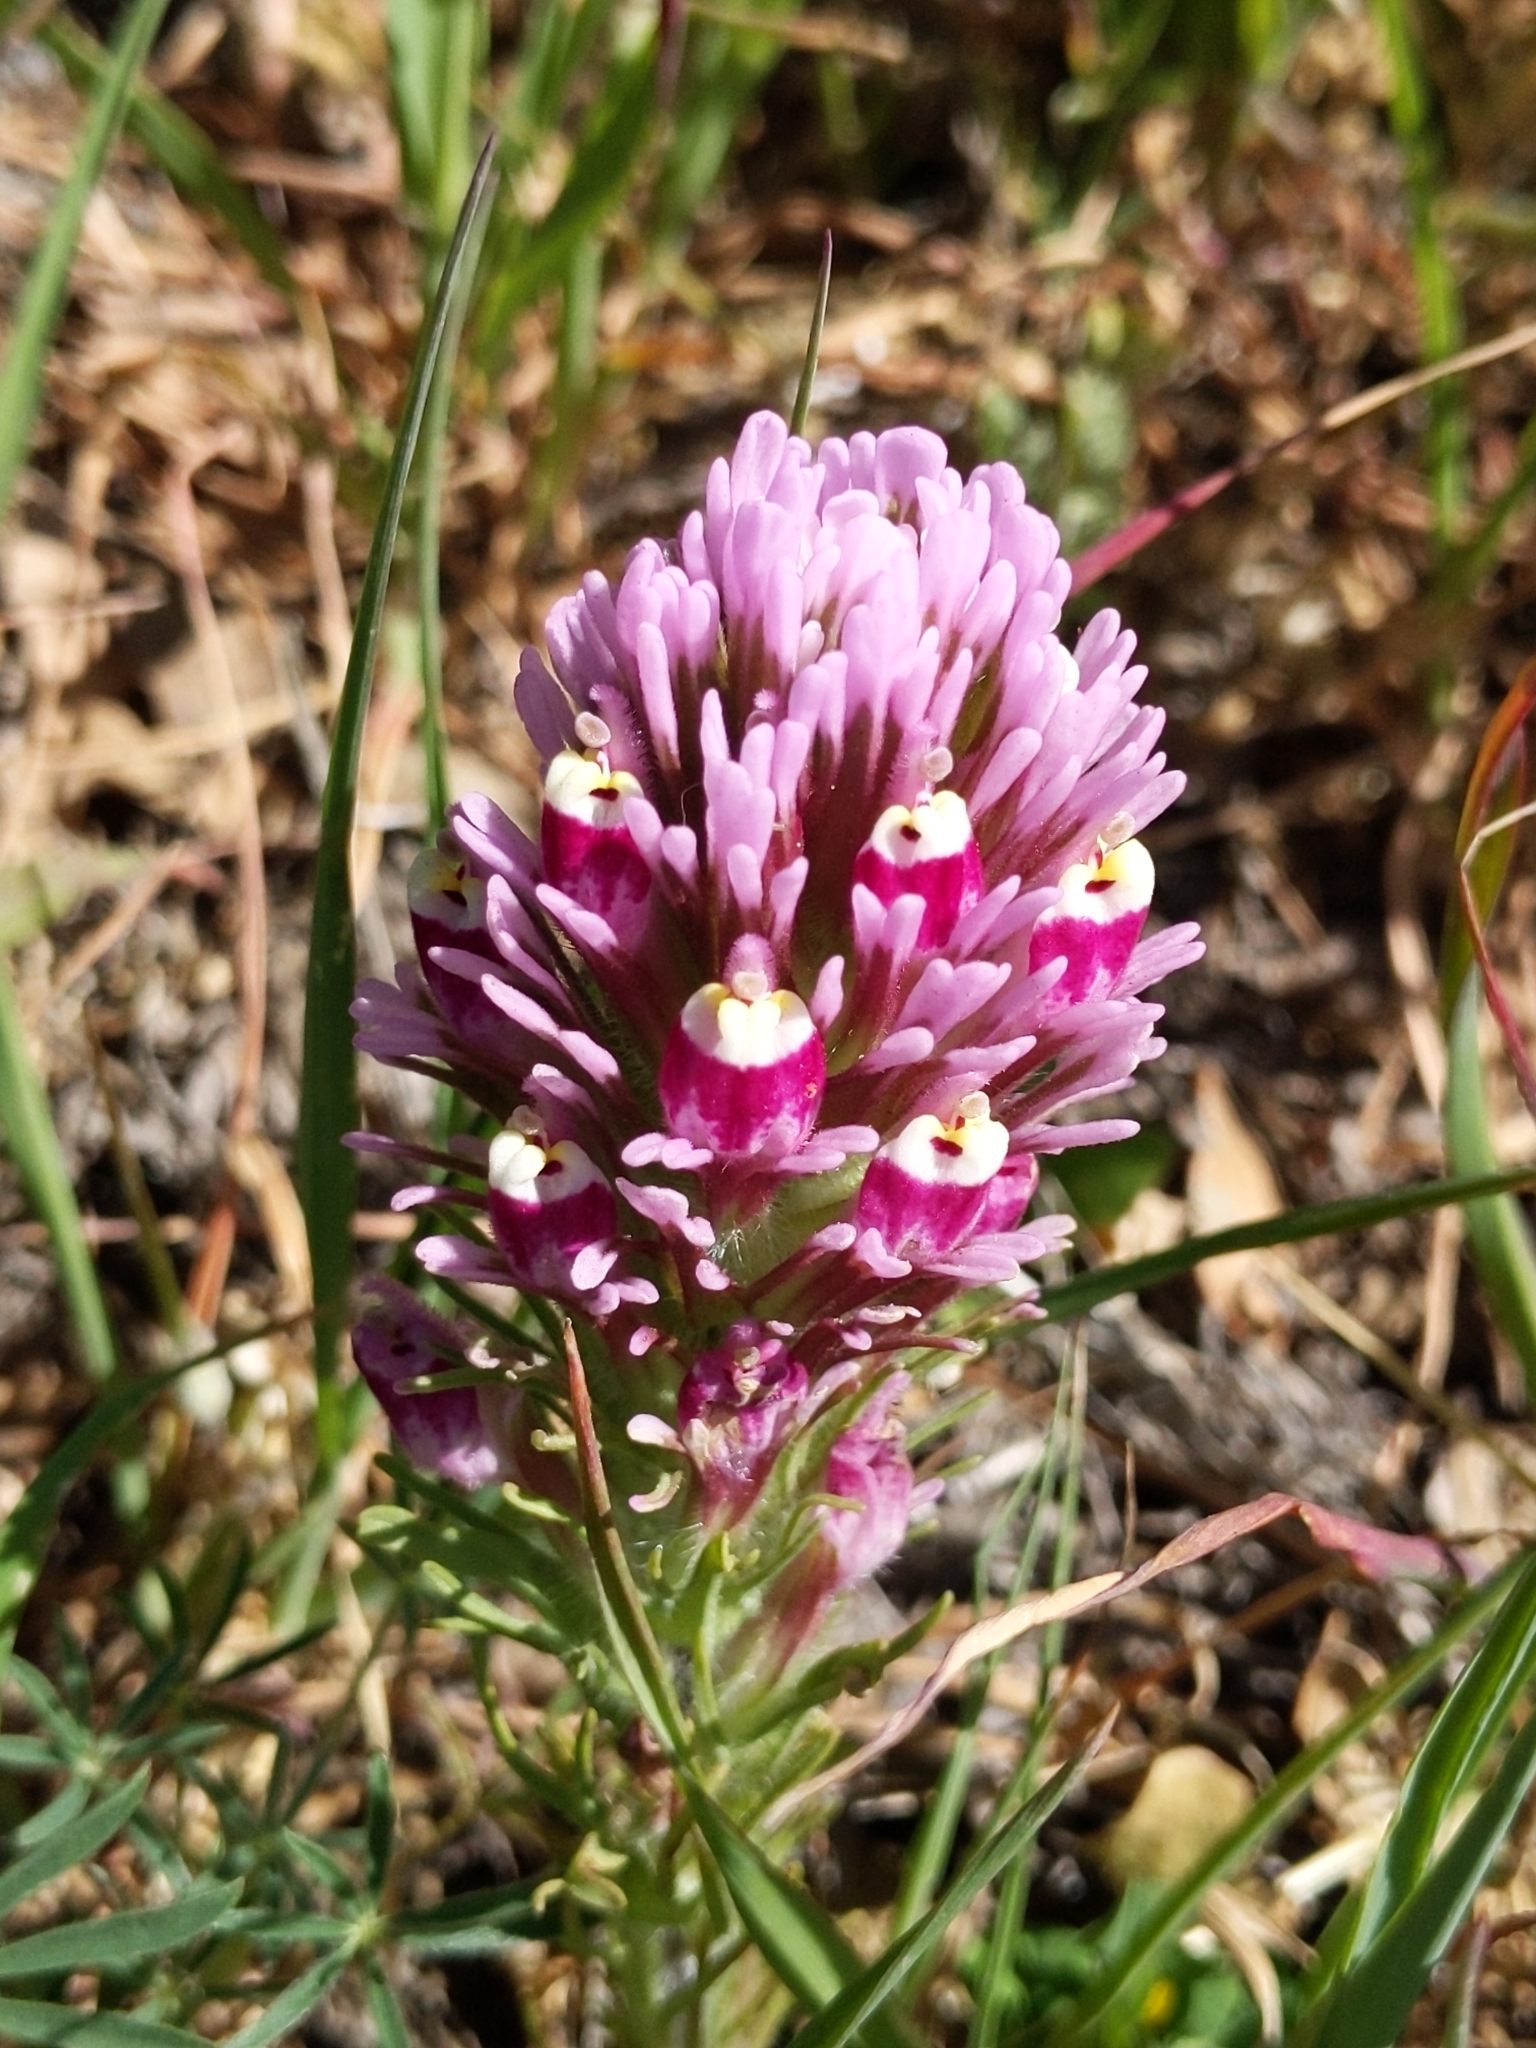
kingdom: Plantae
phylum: Tracheophyta
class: Magnoliopsida
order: Lamiales
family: Orobanchaceae
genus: Castilleja
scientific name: Castilleja exserta
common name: Purple owl-clover
